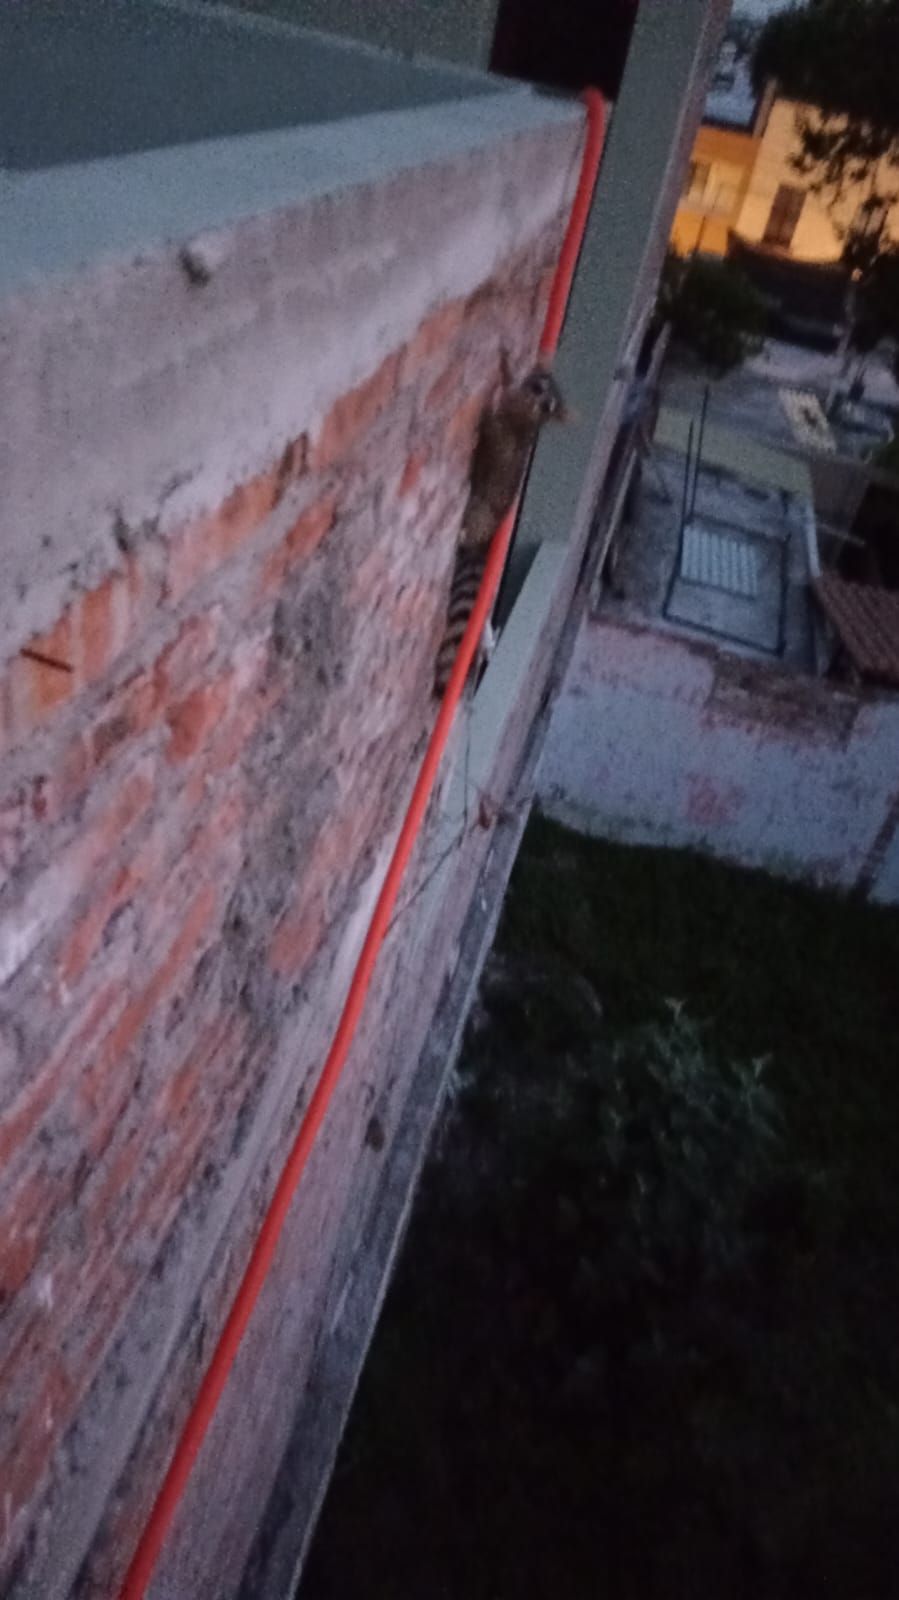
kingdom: Animalia
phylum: Chordata
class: Mammalia
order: Carnivora
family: Procyonidae
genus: Bassariscus
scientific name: Bassariscus astutus
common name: Ringtail
